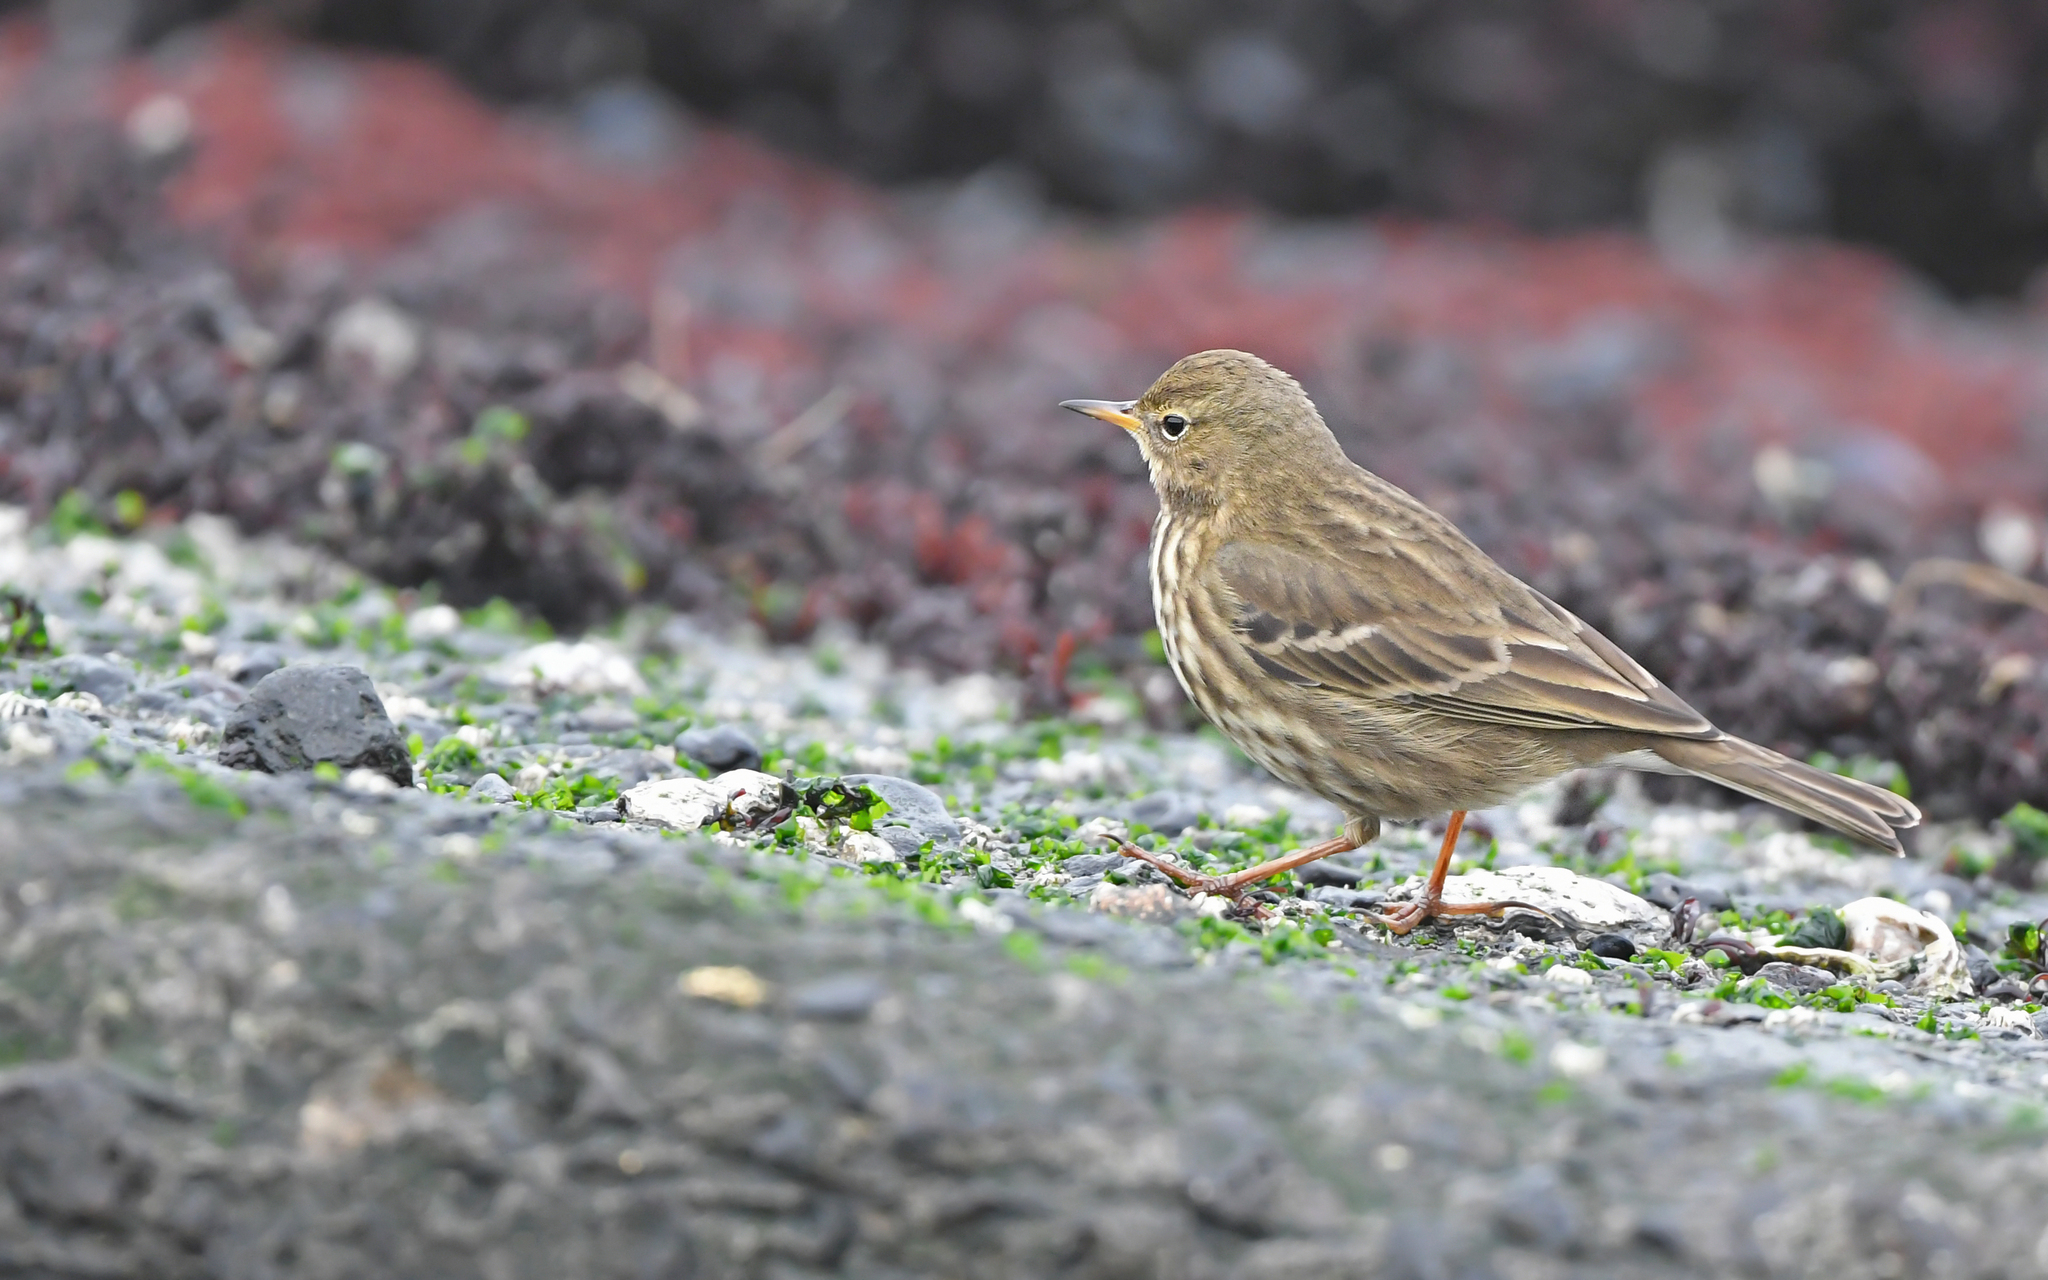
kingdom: Animalia
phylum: Chordata
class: Aves
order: Passeriformes
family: Motacillidae
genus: Anthus
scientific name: Anthus petrosus
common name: Eurasian rock pipit
